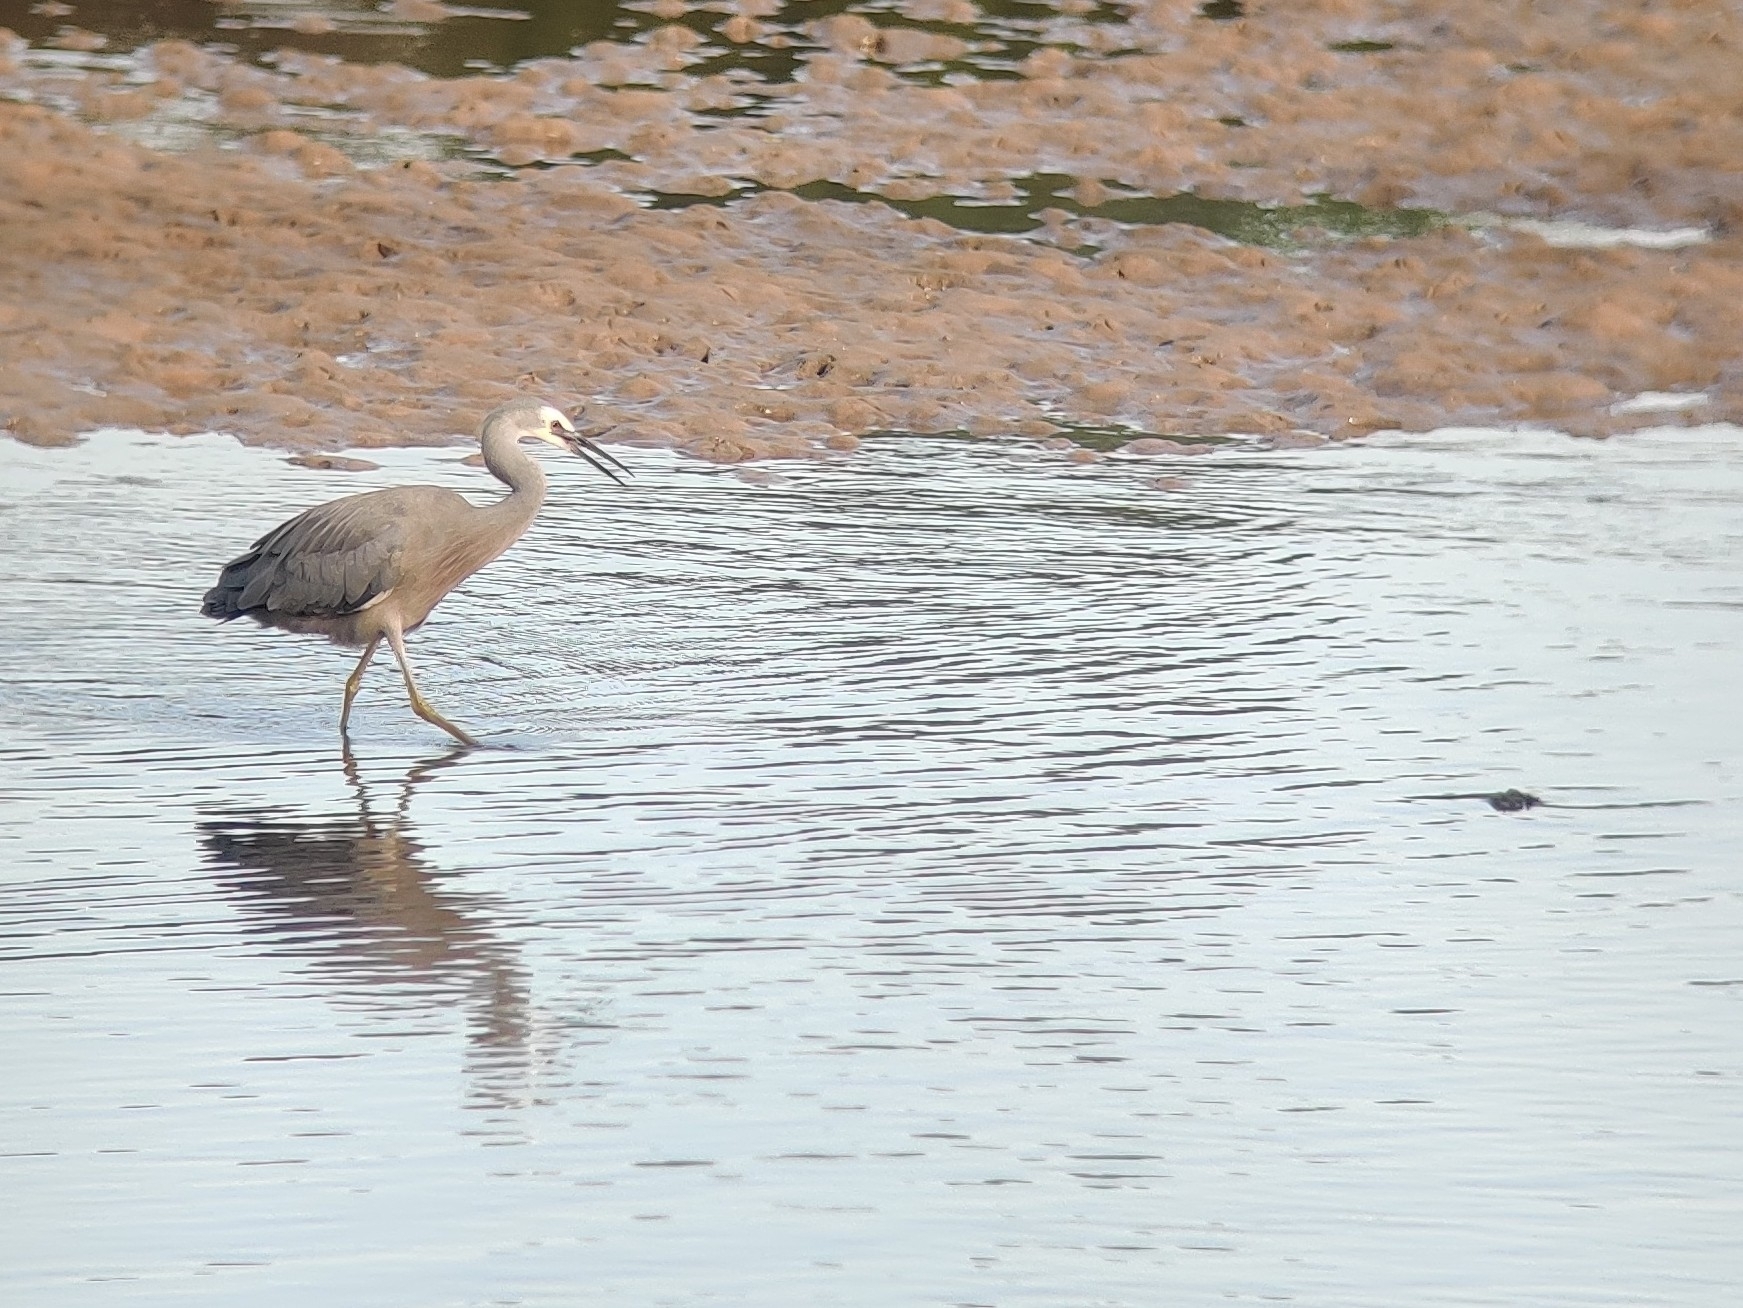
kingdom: Animalia
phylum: Chordata
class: Aves
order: Pelecaniformes
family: Ardeidae
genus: Egretta
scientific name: Egretta novaehollandiae
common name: White-faced heron
